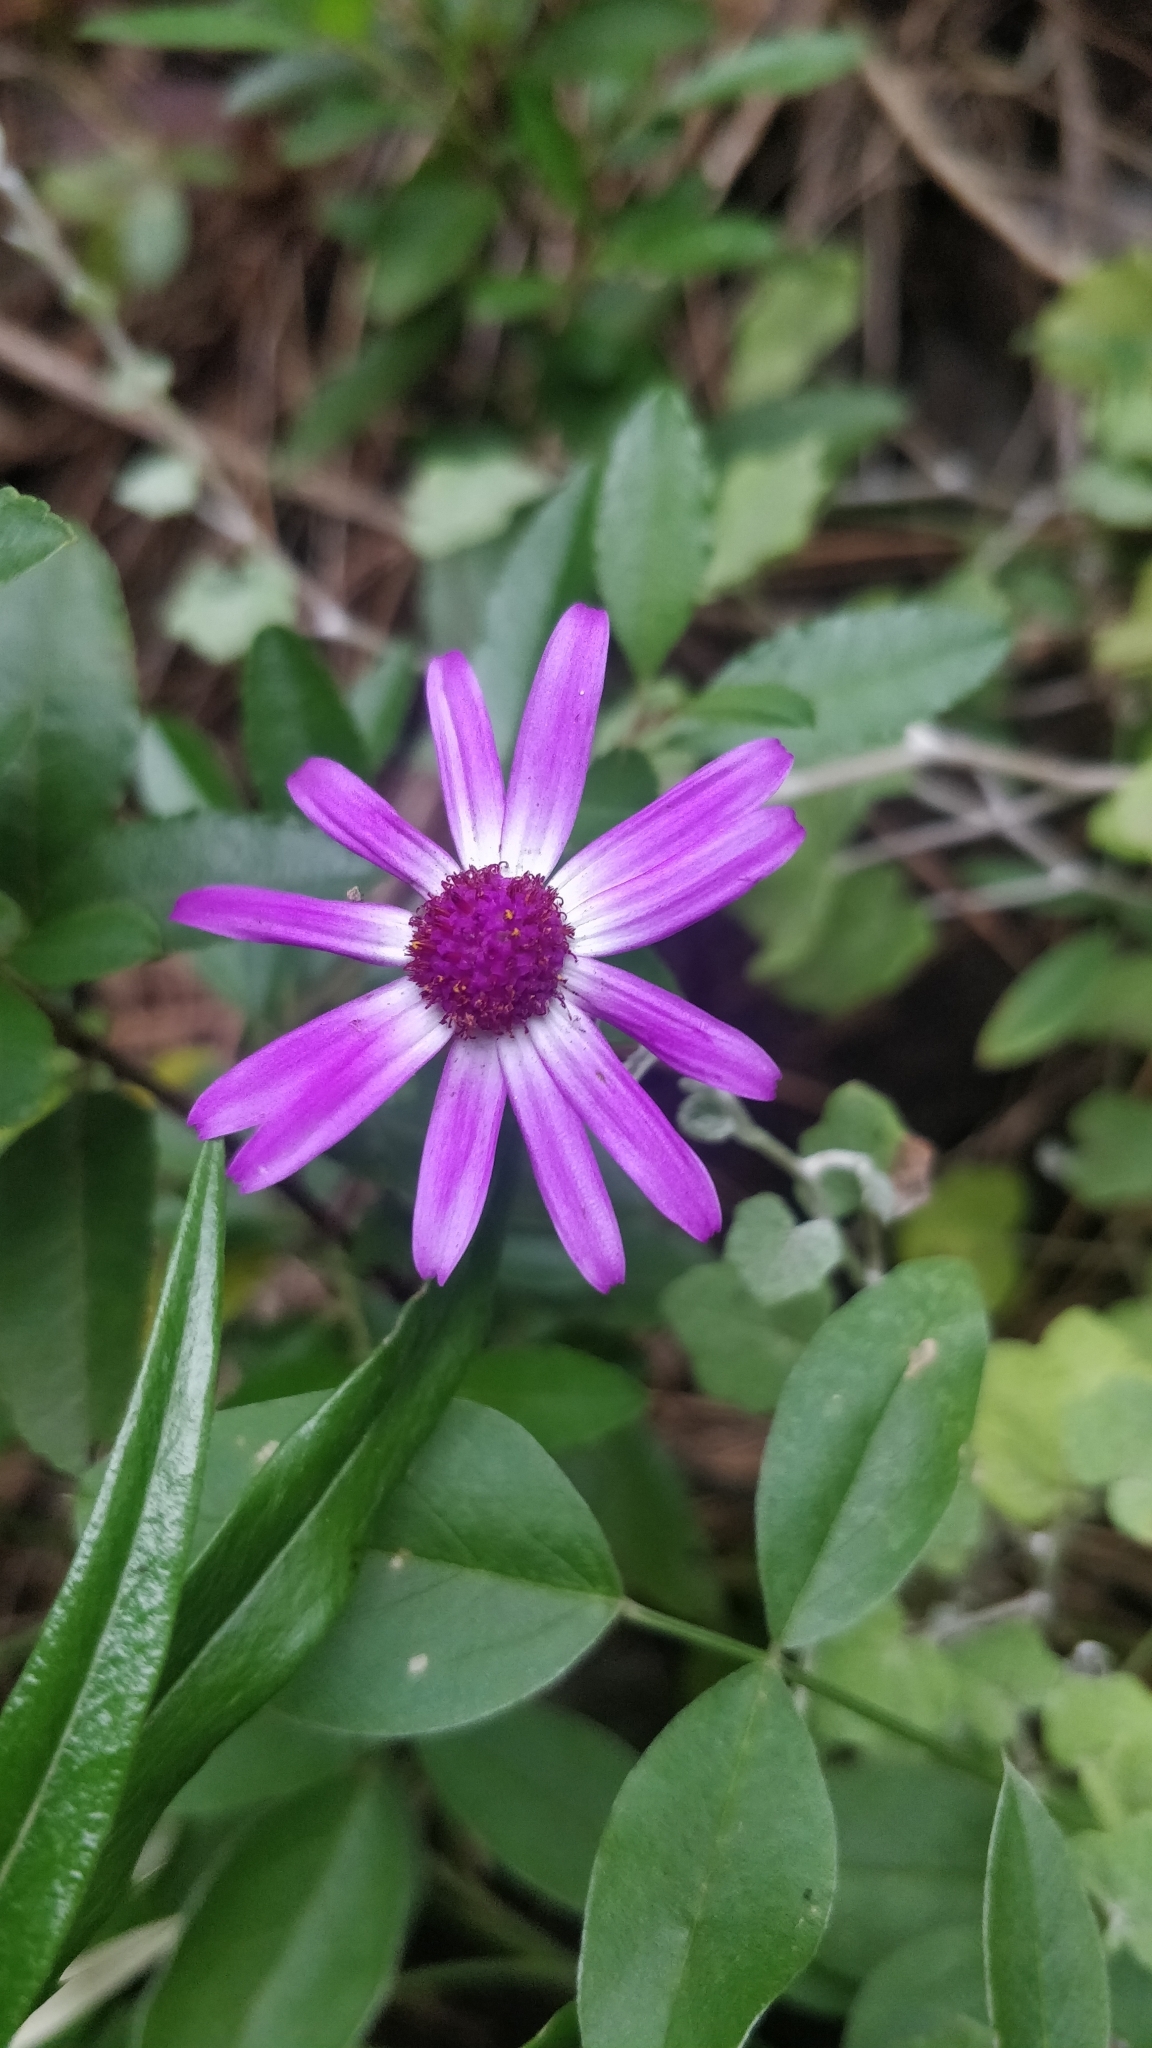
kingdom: Plantae
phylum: Tracheophyta
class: Magnoliopsida
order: Asterales
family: Asteraceae
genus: Pericallis
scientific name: Pericallis lanata
